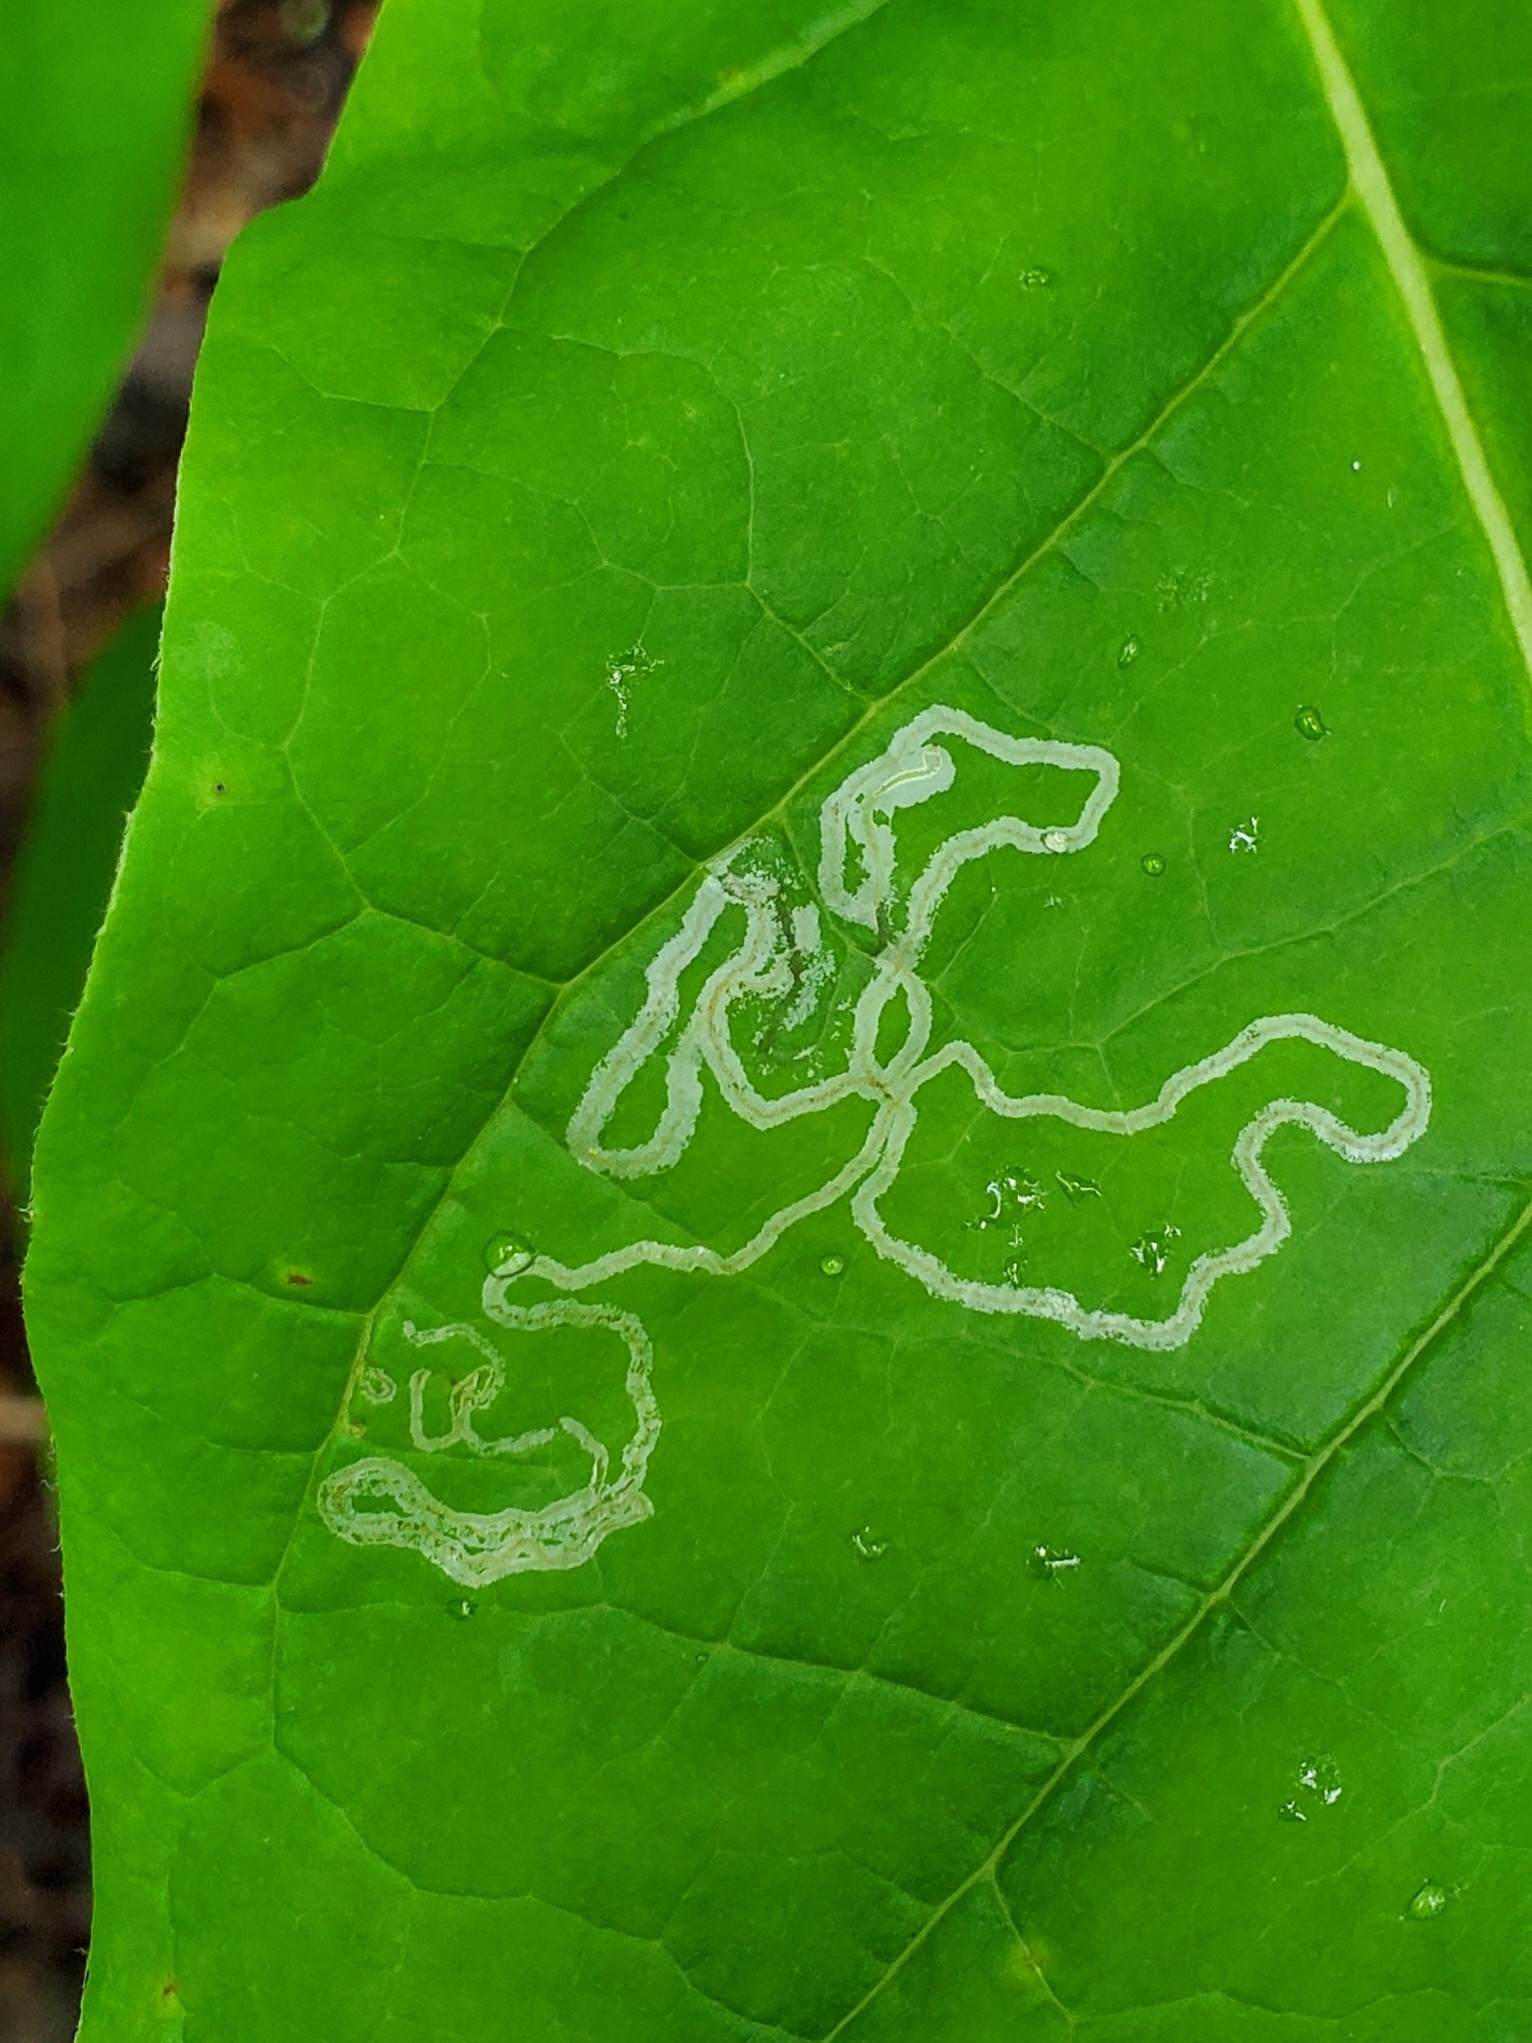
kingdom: Animalia
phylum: Arthropoda
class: Insecta
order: Lepidoptera
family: Gracillariidae
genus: Phyllocnistis
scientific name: Phyllocnistis liriodendronella
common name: Tulip tree leaf miner
